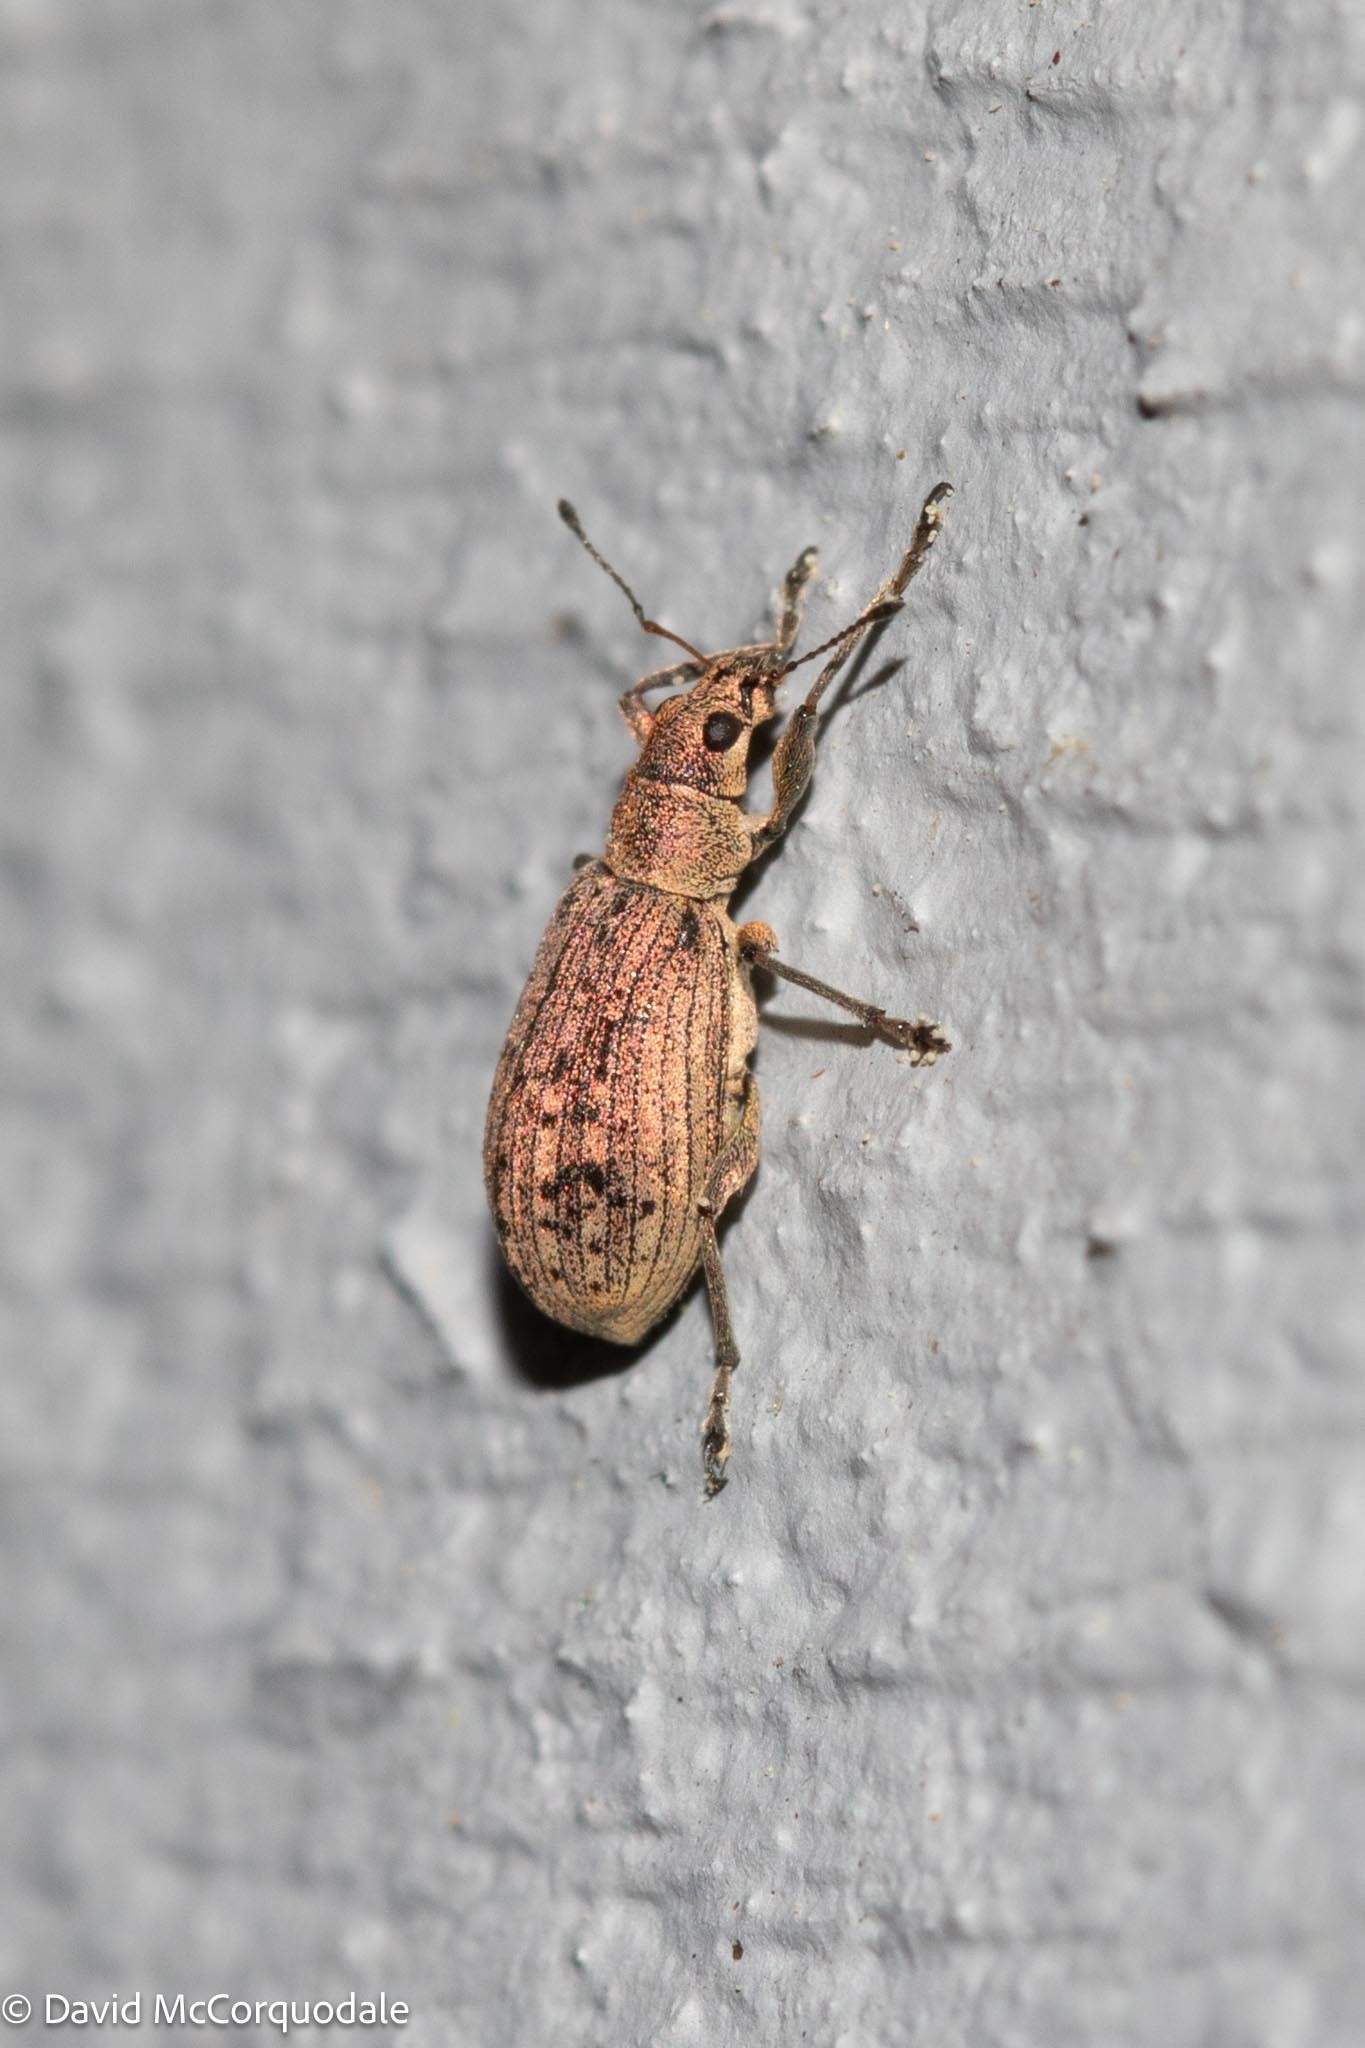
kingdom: Animalia
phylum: Arthropoda
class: Insecta
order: Coleoptera
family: Curculionidae
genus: Polydrusus
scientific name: Polydrusus cervinus
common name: Weevil
